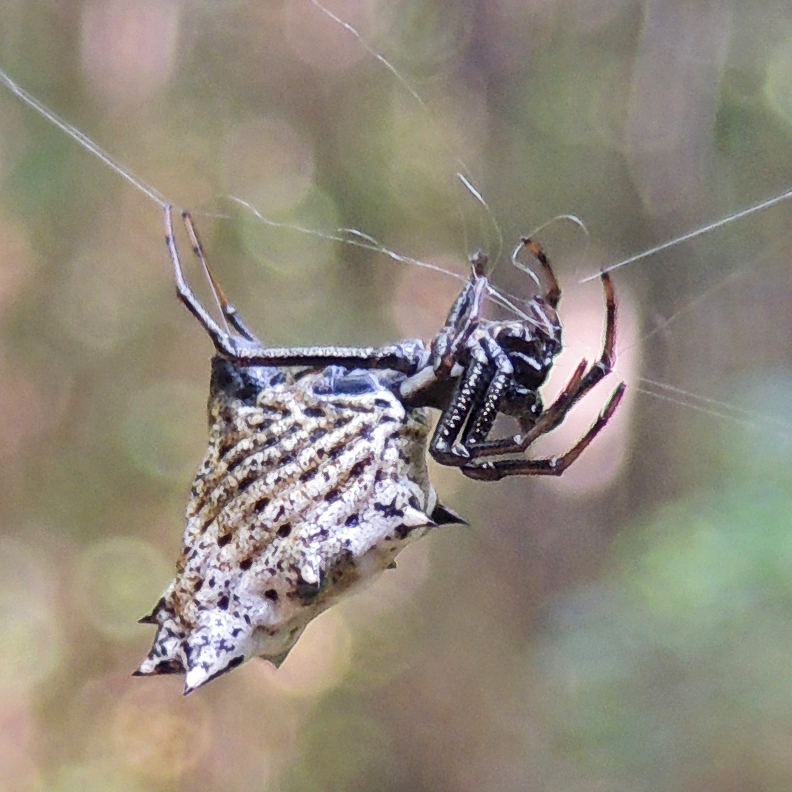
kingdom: Animalia
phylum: Arthropoda
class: Arachnida
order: Araneae
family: Araneidae
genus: Micrathena
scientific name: Micrathena gracilis
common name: Orb weavers
